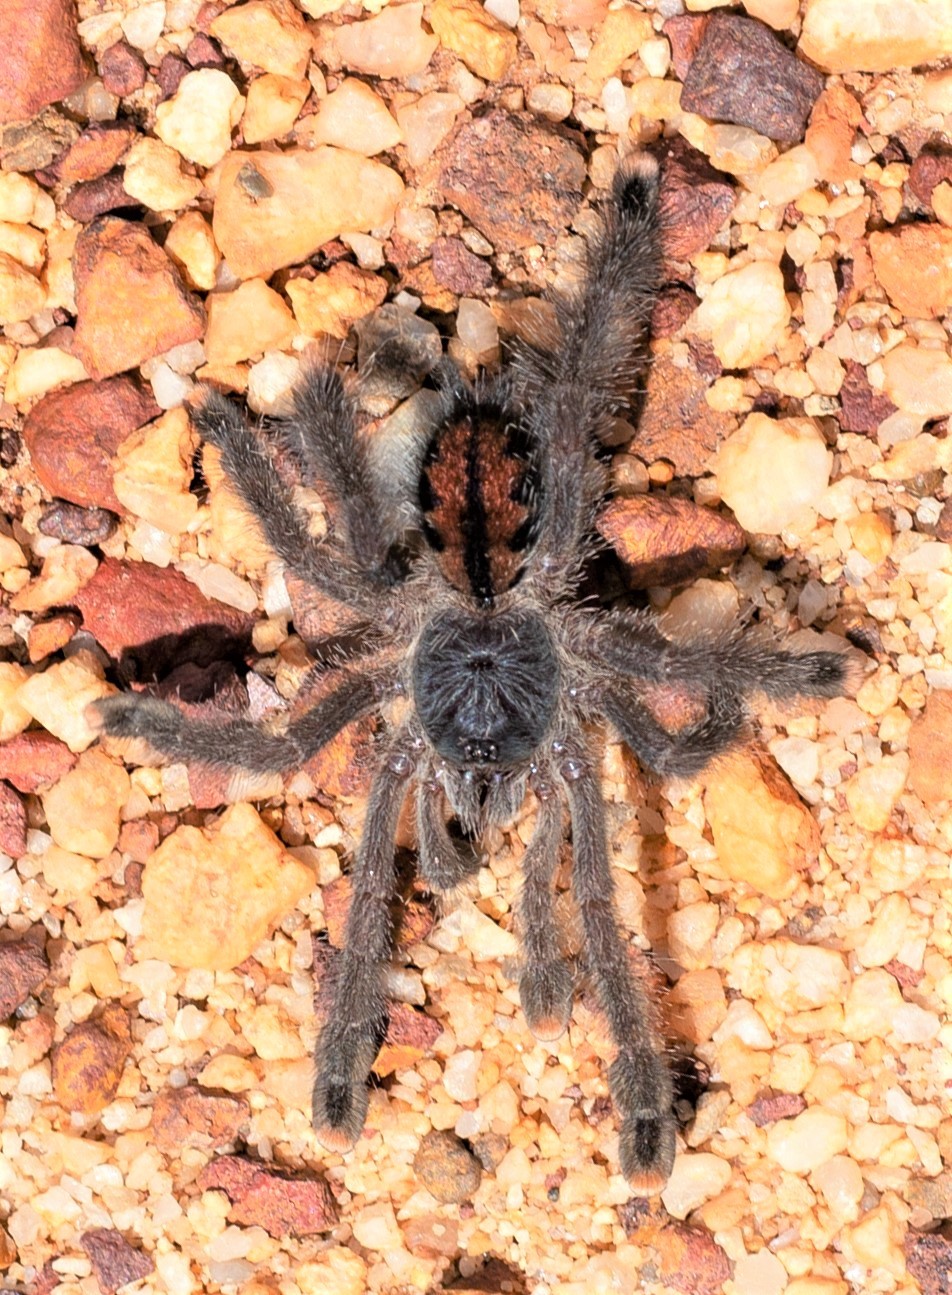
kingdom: Animalia
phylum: Arthropoda
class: Arachnida
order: Araneae
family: Theraphosidae
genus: Avicularia
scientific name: Avicularia avicularia
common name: Tarantula spiders
